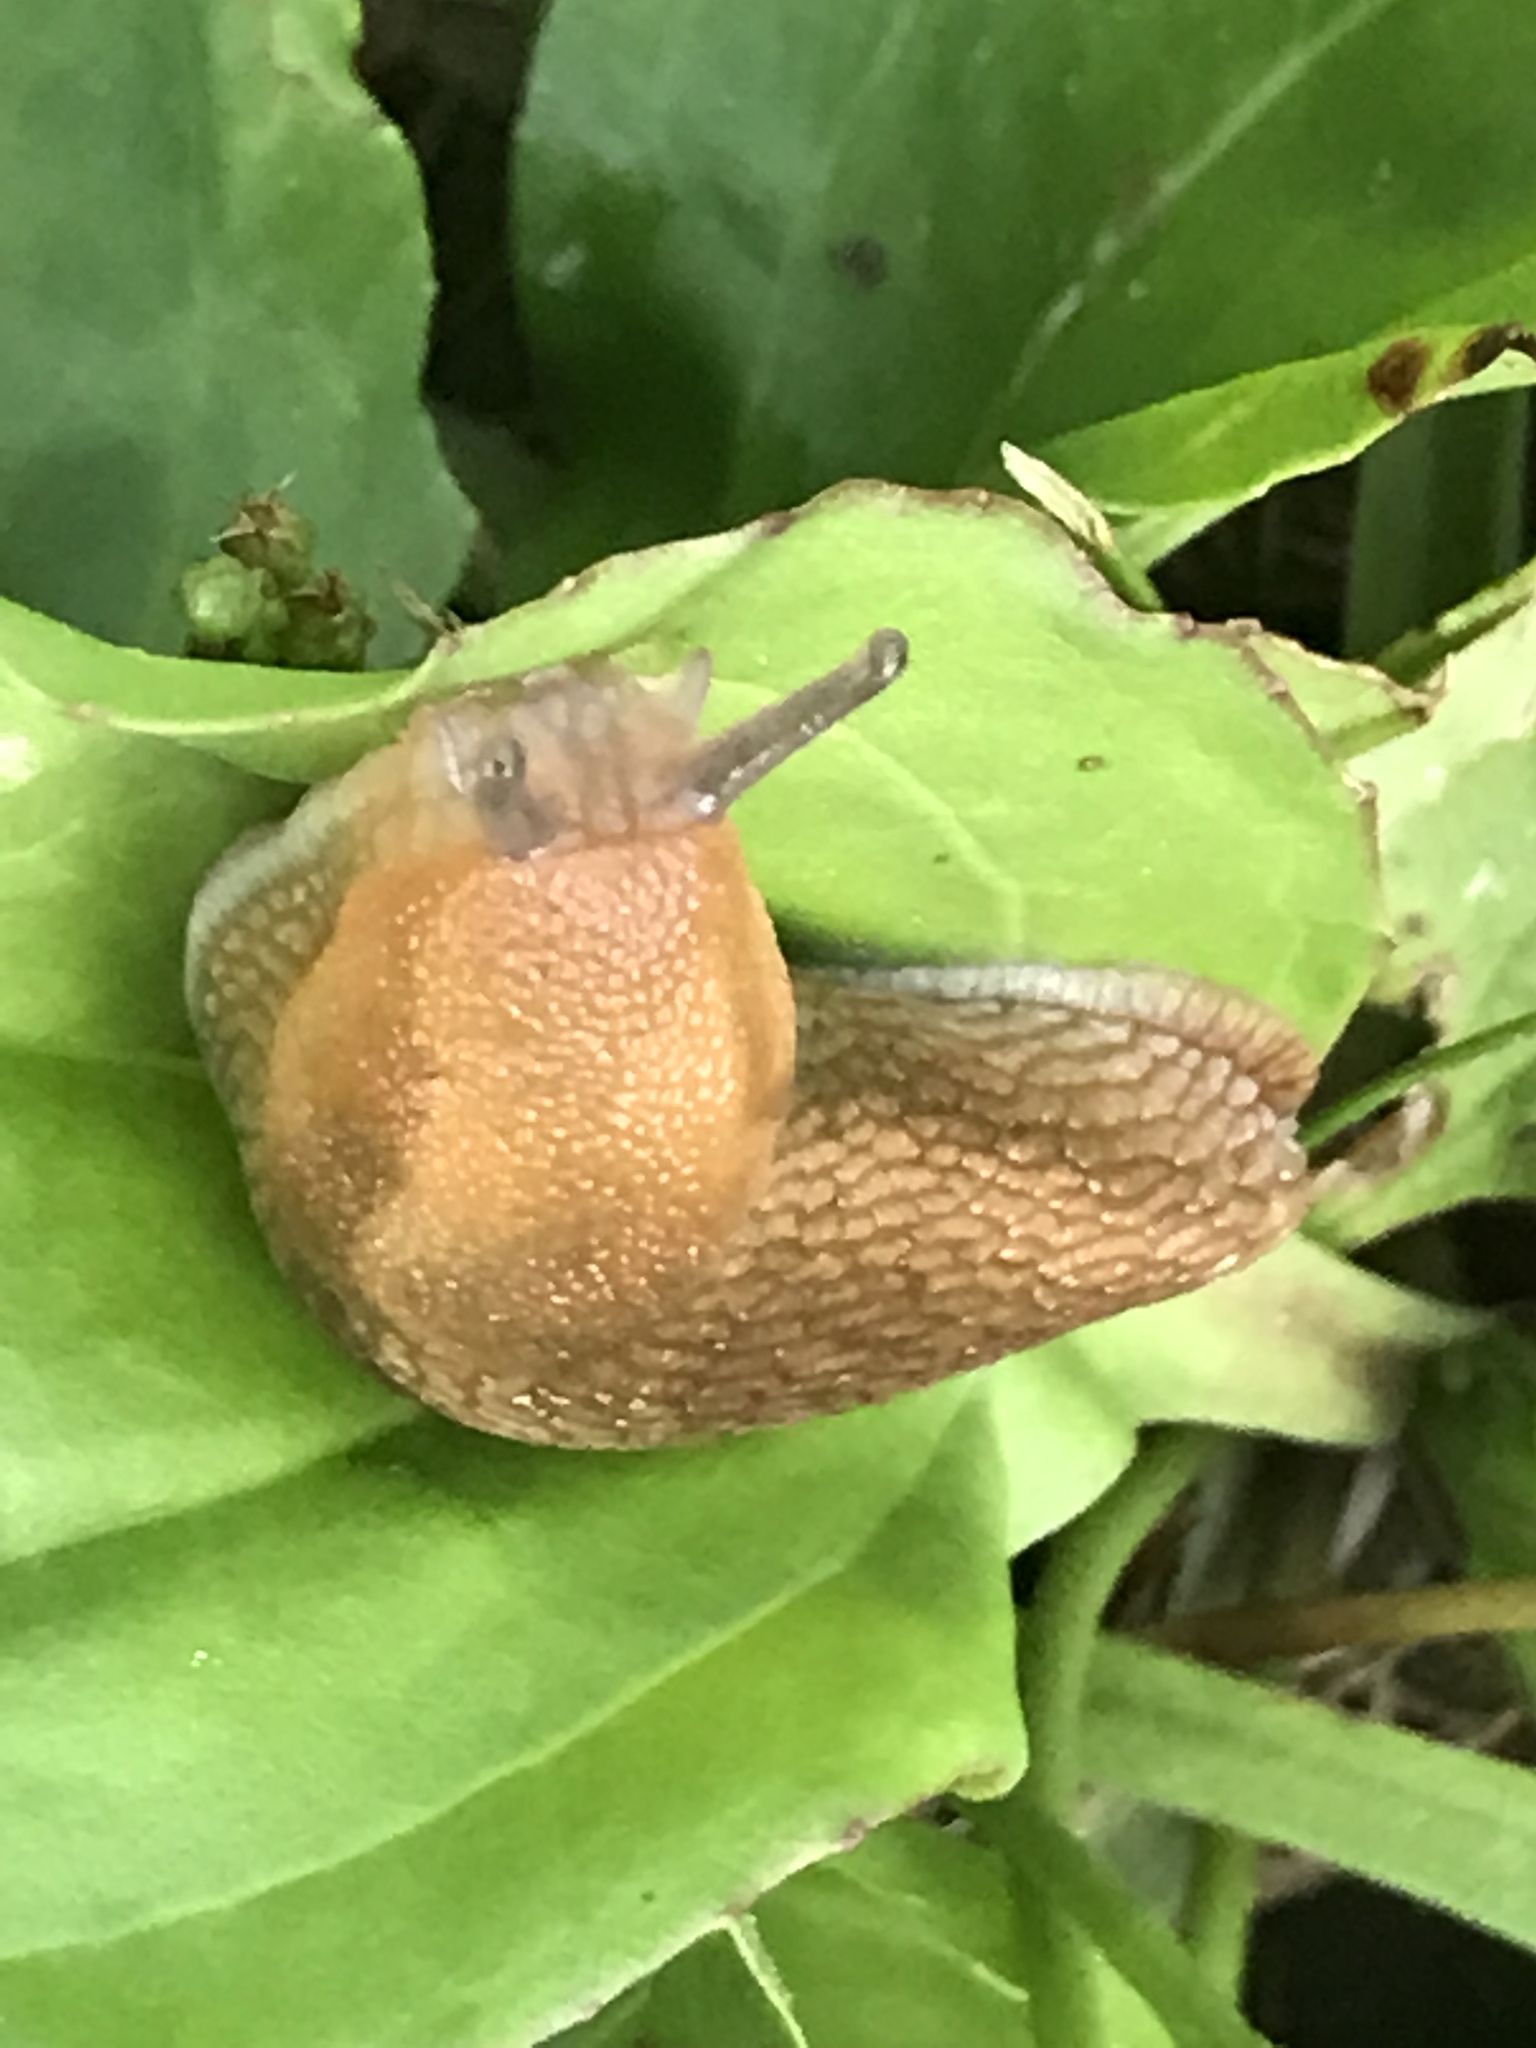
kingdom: Animalia
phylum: Mollusca
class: Gastropoda
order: Stylommatophora
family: Arionidae
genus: Arion
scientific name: Arion subfuscus
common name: Dusky arion
